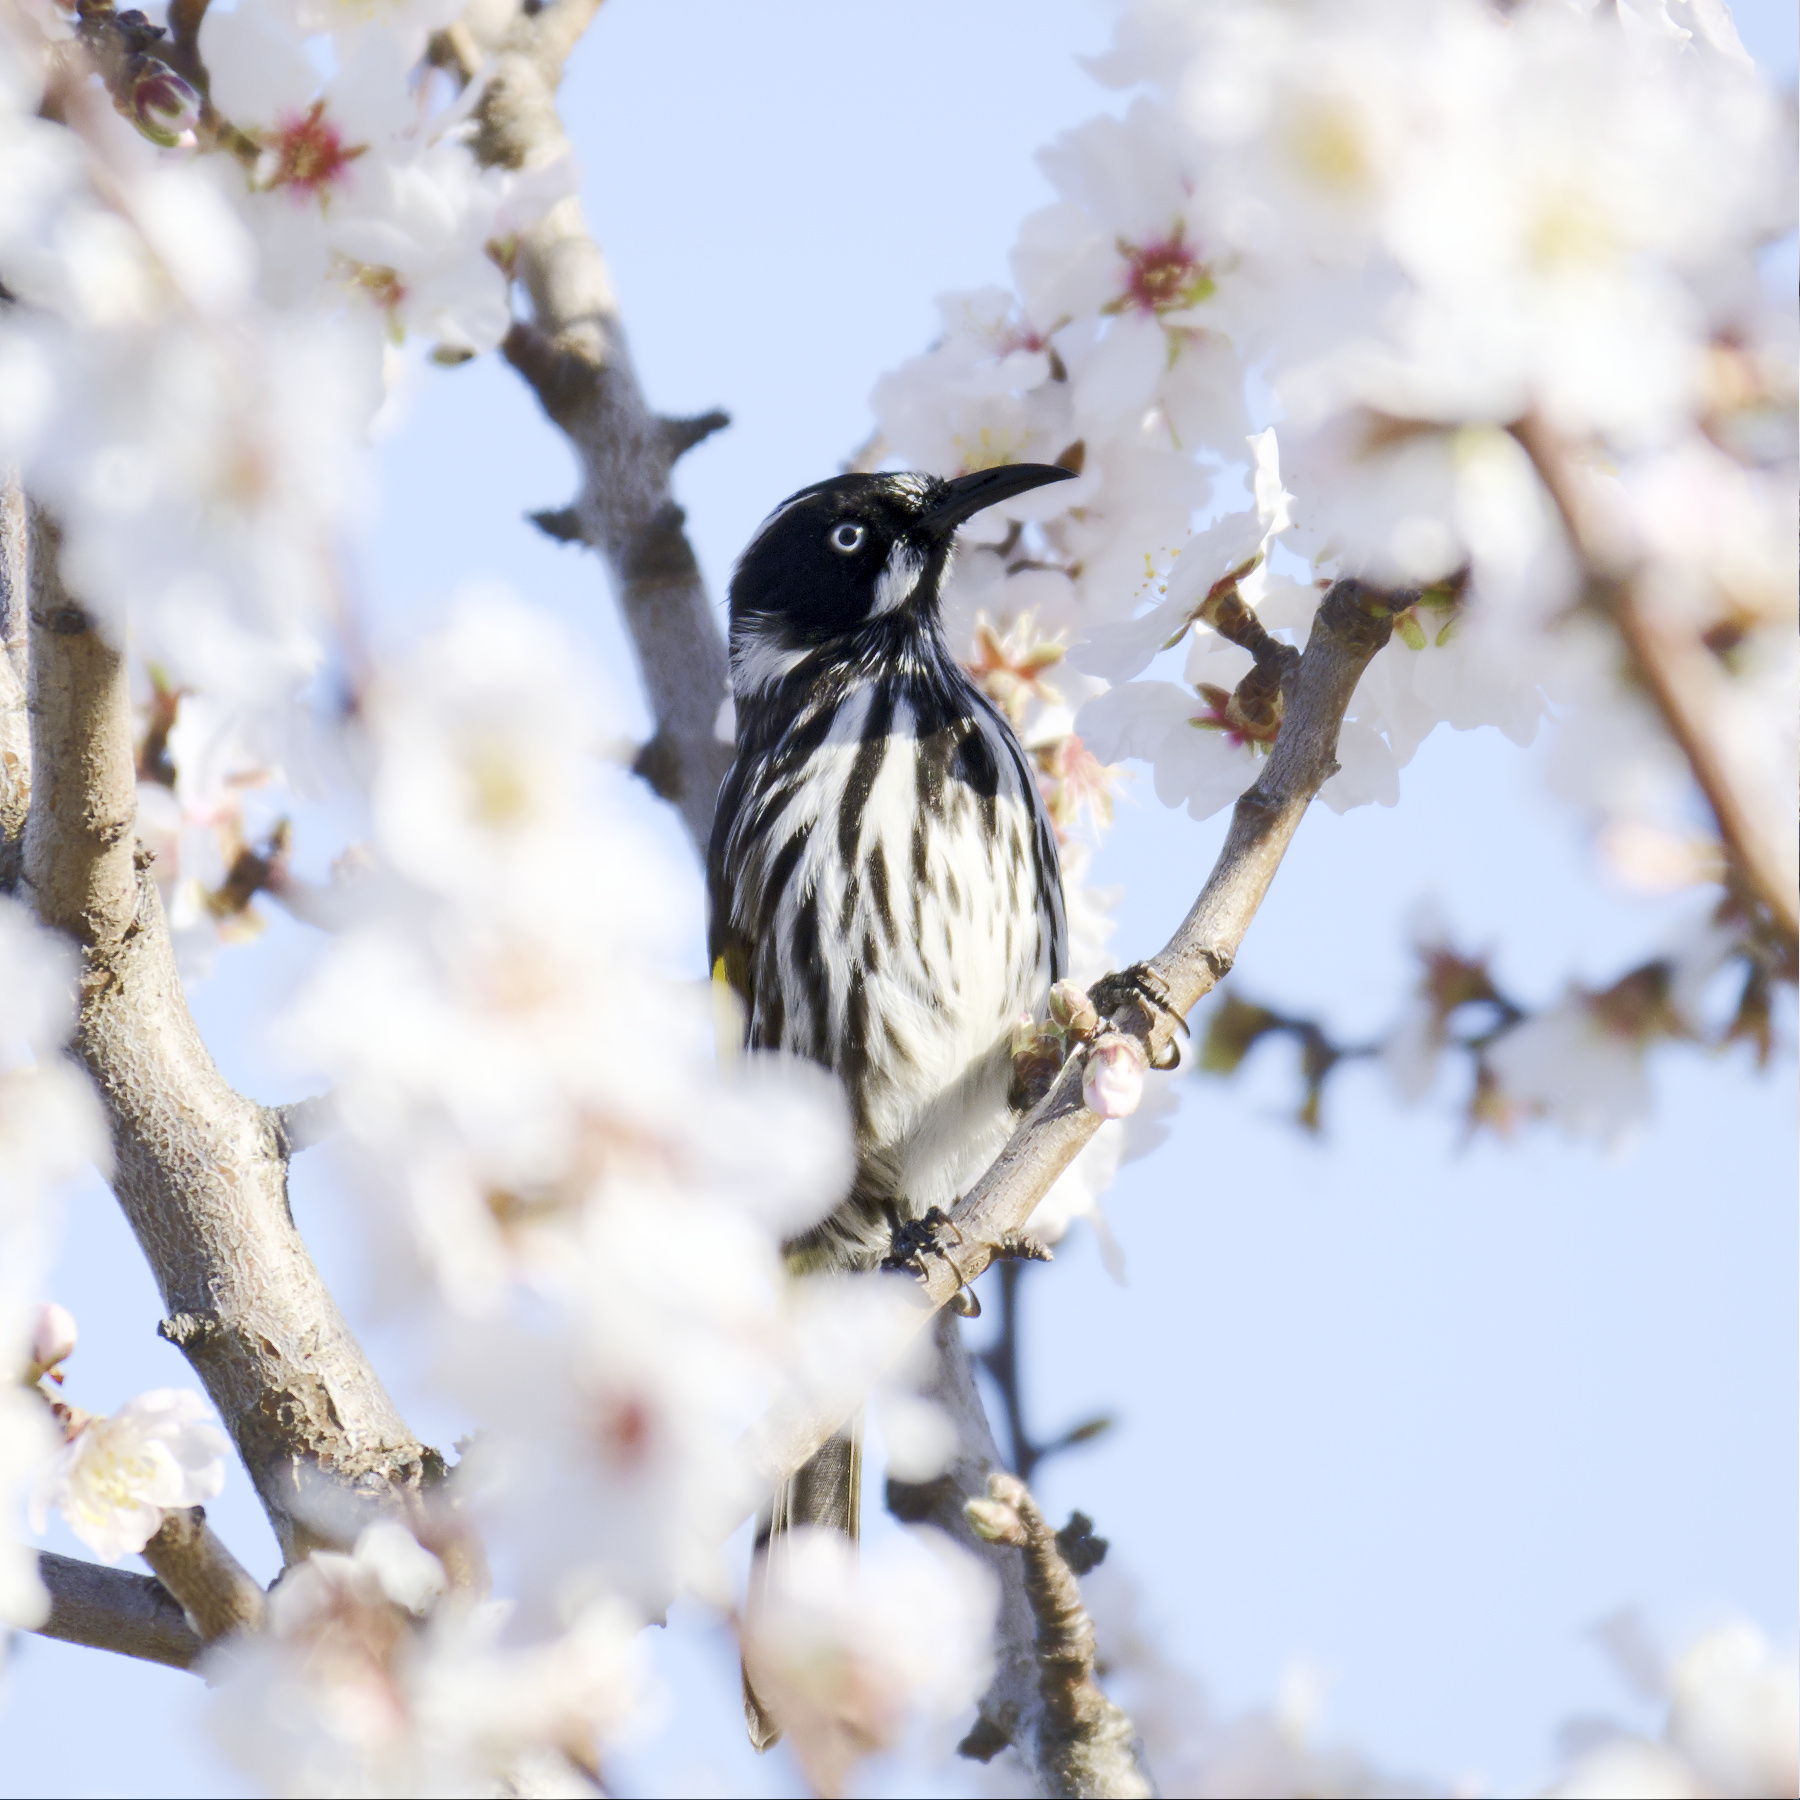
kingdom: Animalia
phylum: Chordata
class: Aves
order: Passeriformes
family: Meliphagidae
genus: Phylidonyris
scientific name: Phylidonyris novaehollandiae
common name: New holland honeyeater
